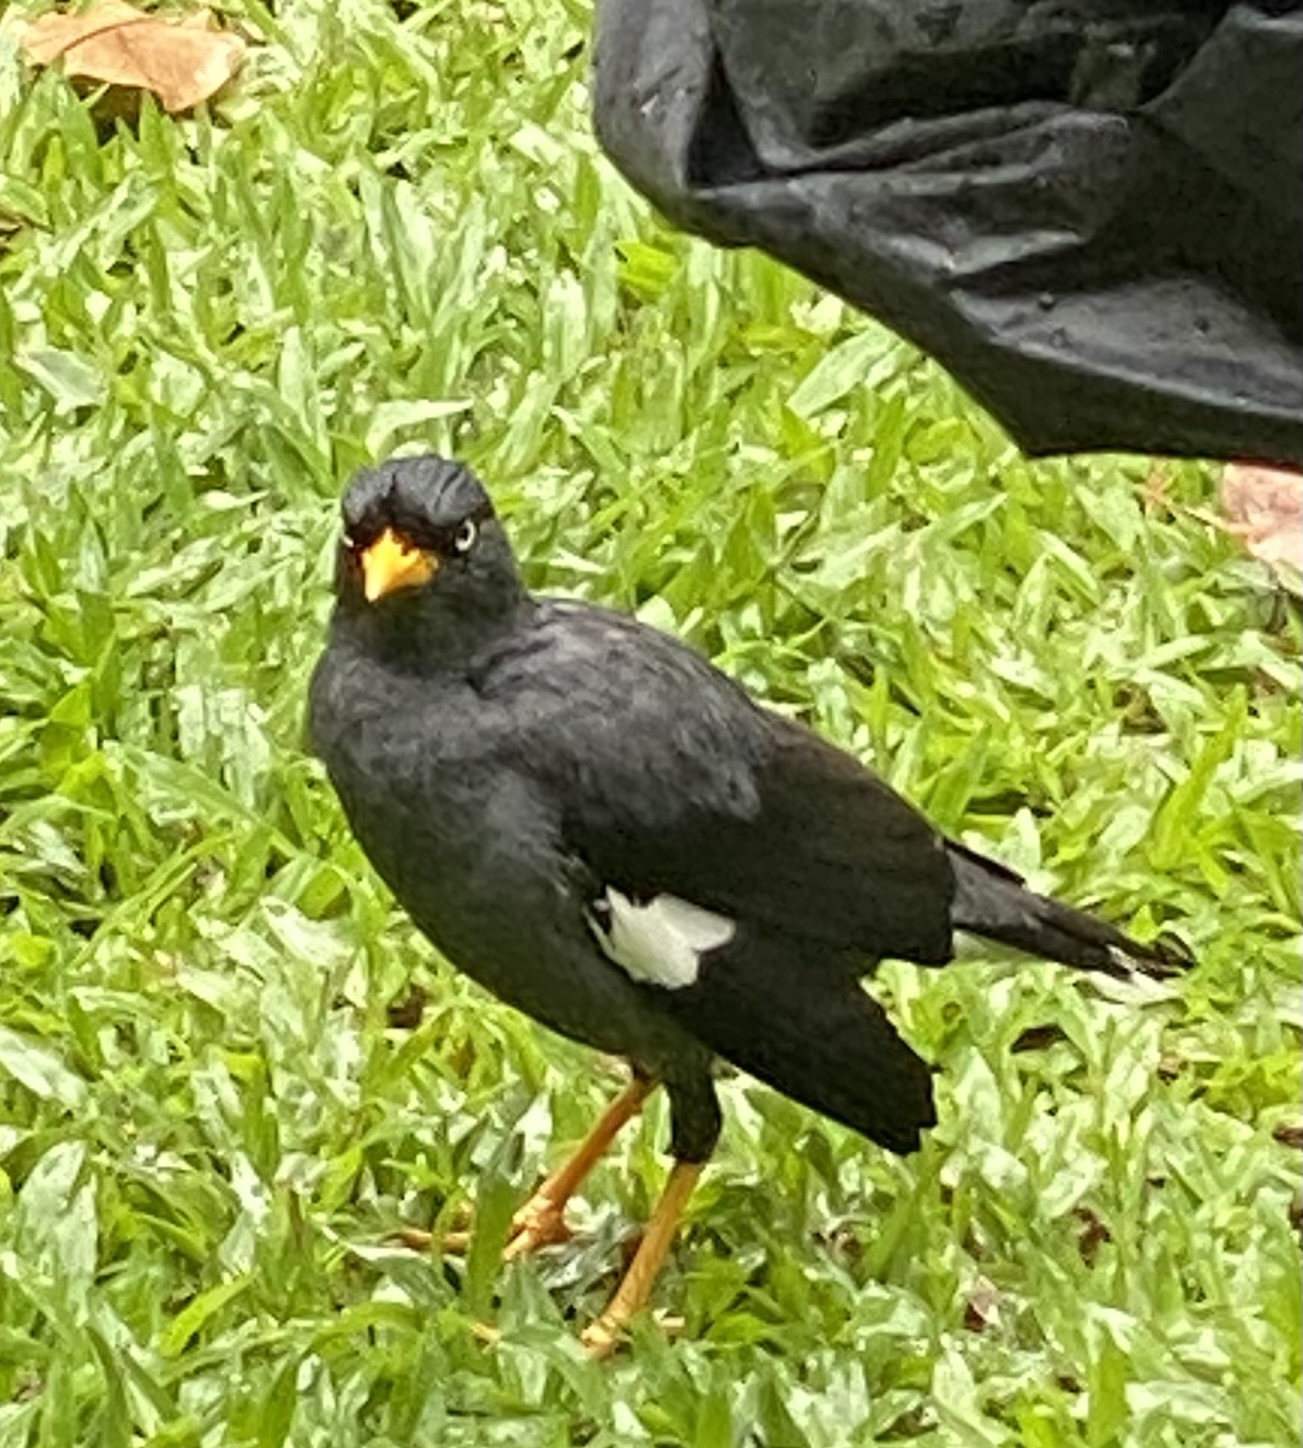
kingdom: Animalia
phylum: Chordata
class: Aves
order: Passeriformes
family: Sturnidae
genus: Acridotheres
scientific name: Acridotheres javanicus
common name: Javan myna
